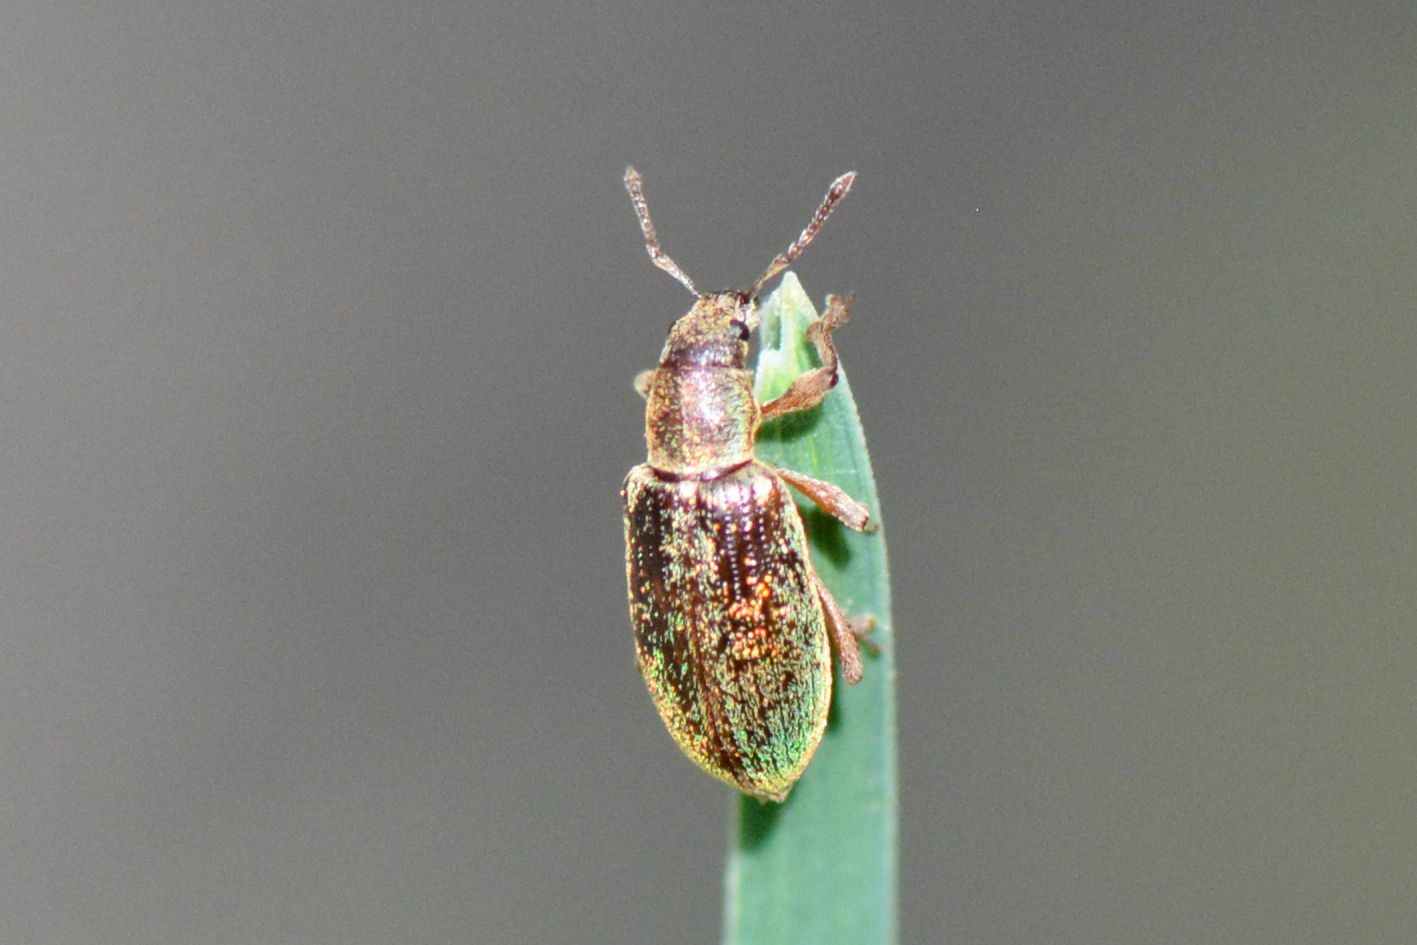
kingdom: Animalia
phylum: Arthropoda
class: Insecta
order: Coleoptera
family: Curculionidae
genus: Polydrusus
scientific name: Polydrusus viridinitens
